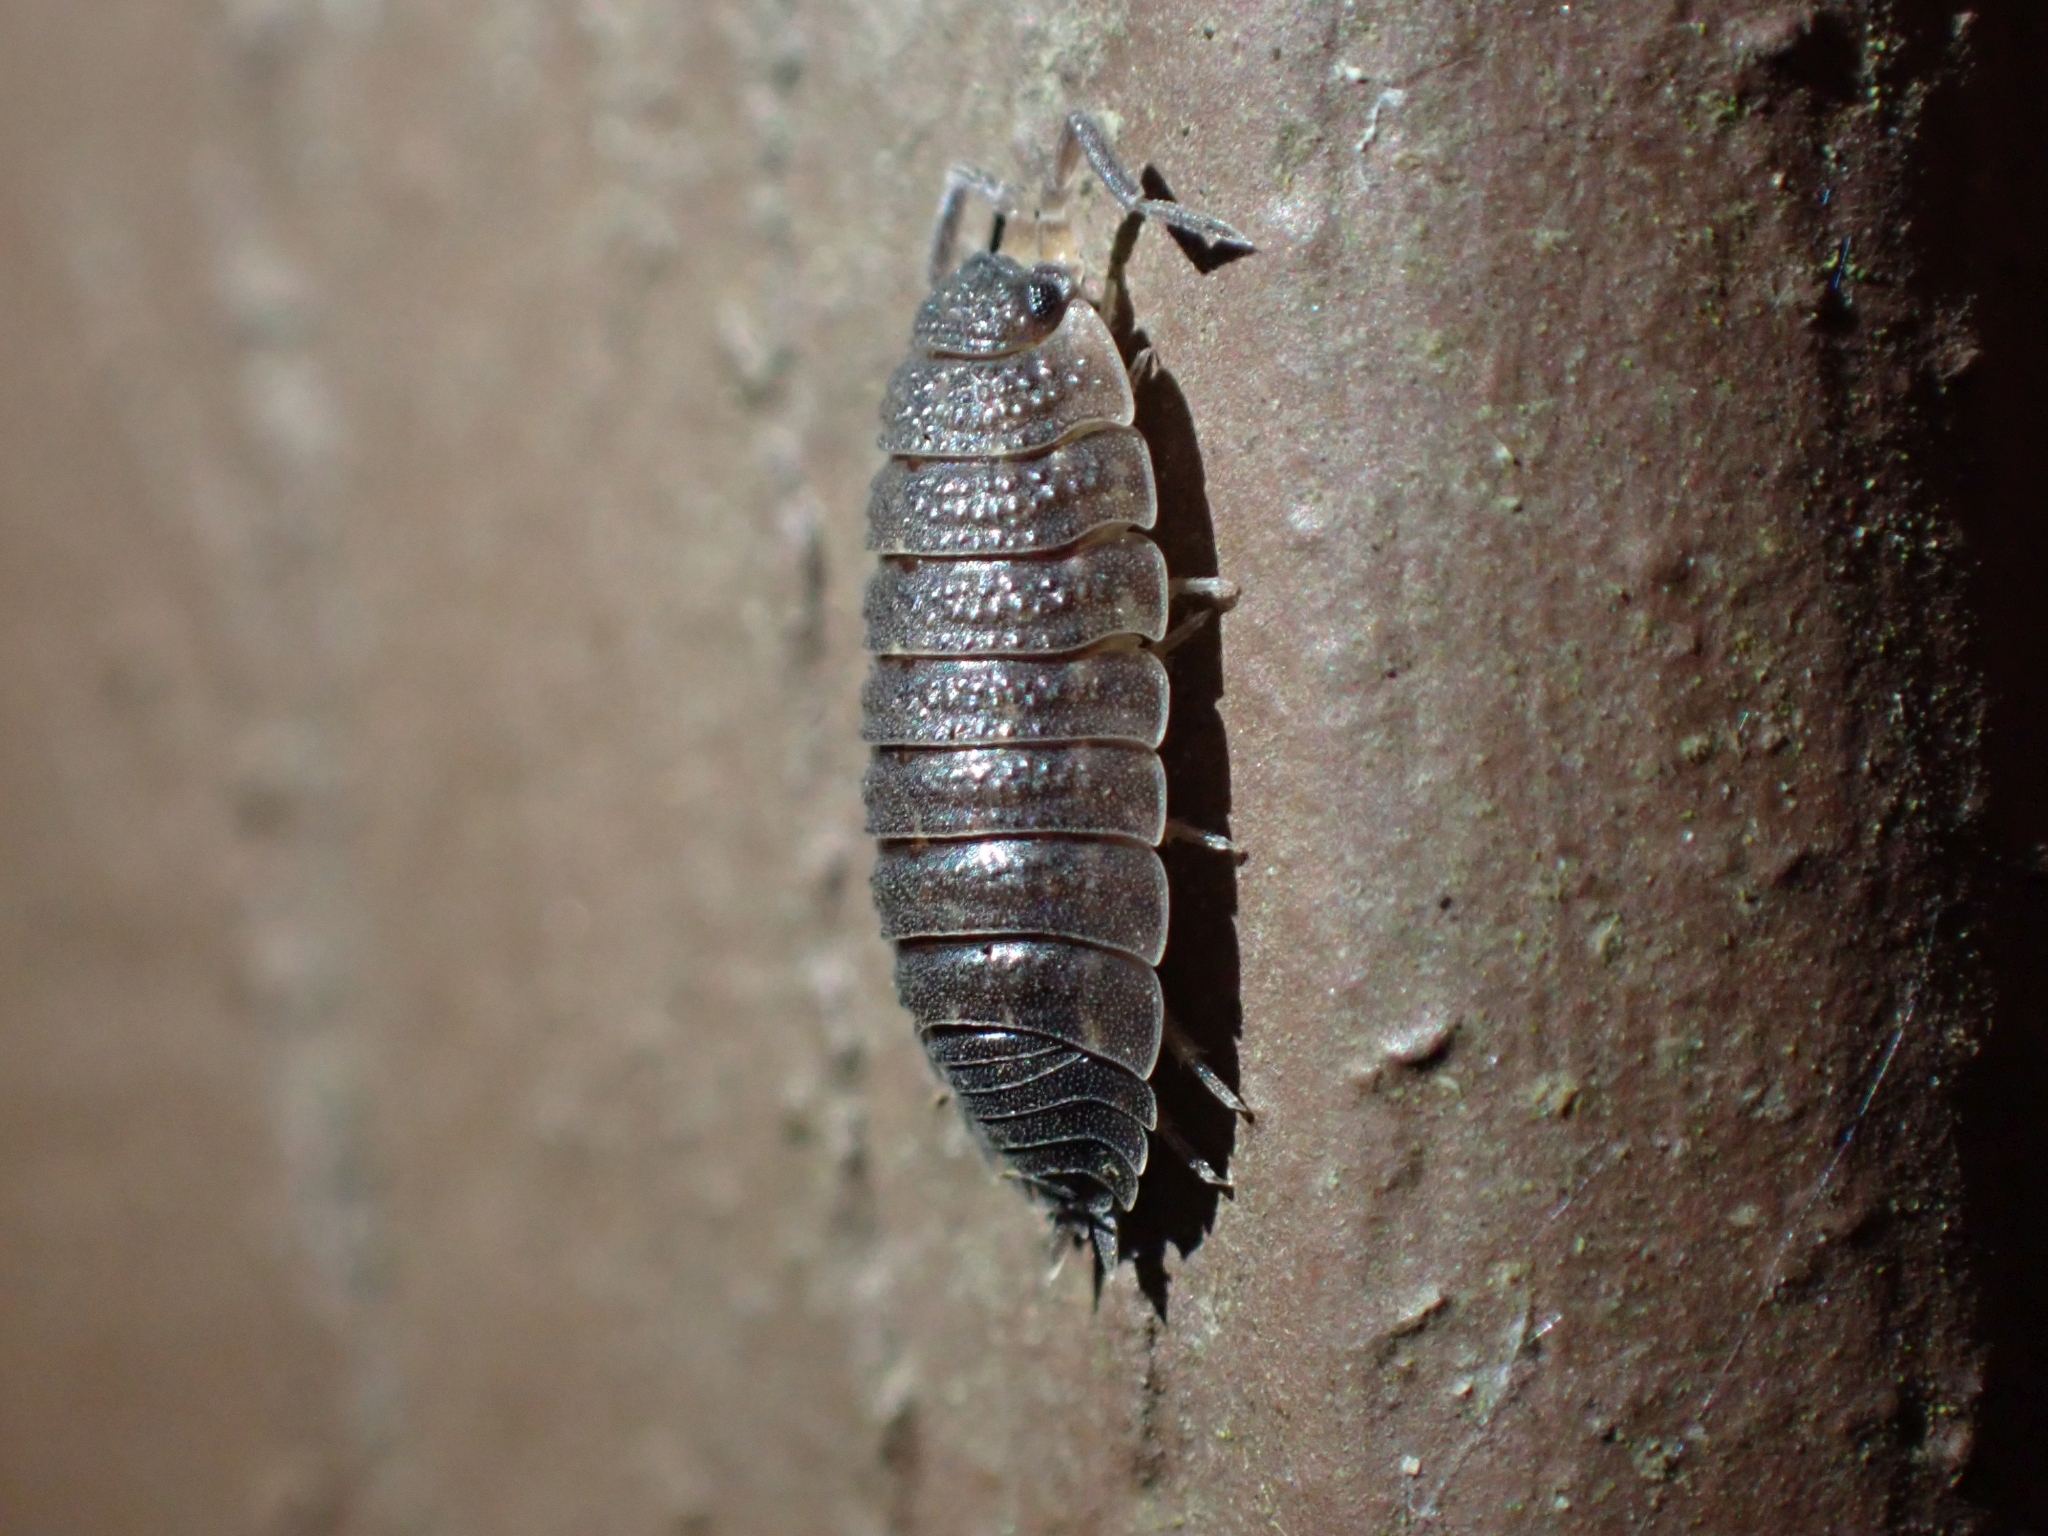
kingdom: Animalia
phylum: Arthropoda
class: Malacostraca
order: Isopoda
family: Porcellionidae
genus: Porcellio
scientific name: Porcellio scaber
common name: Common rough woodlouse
